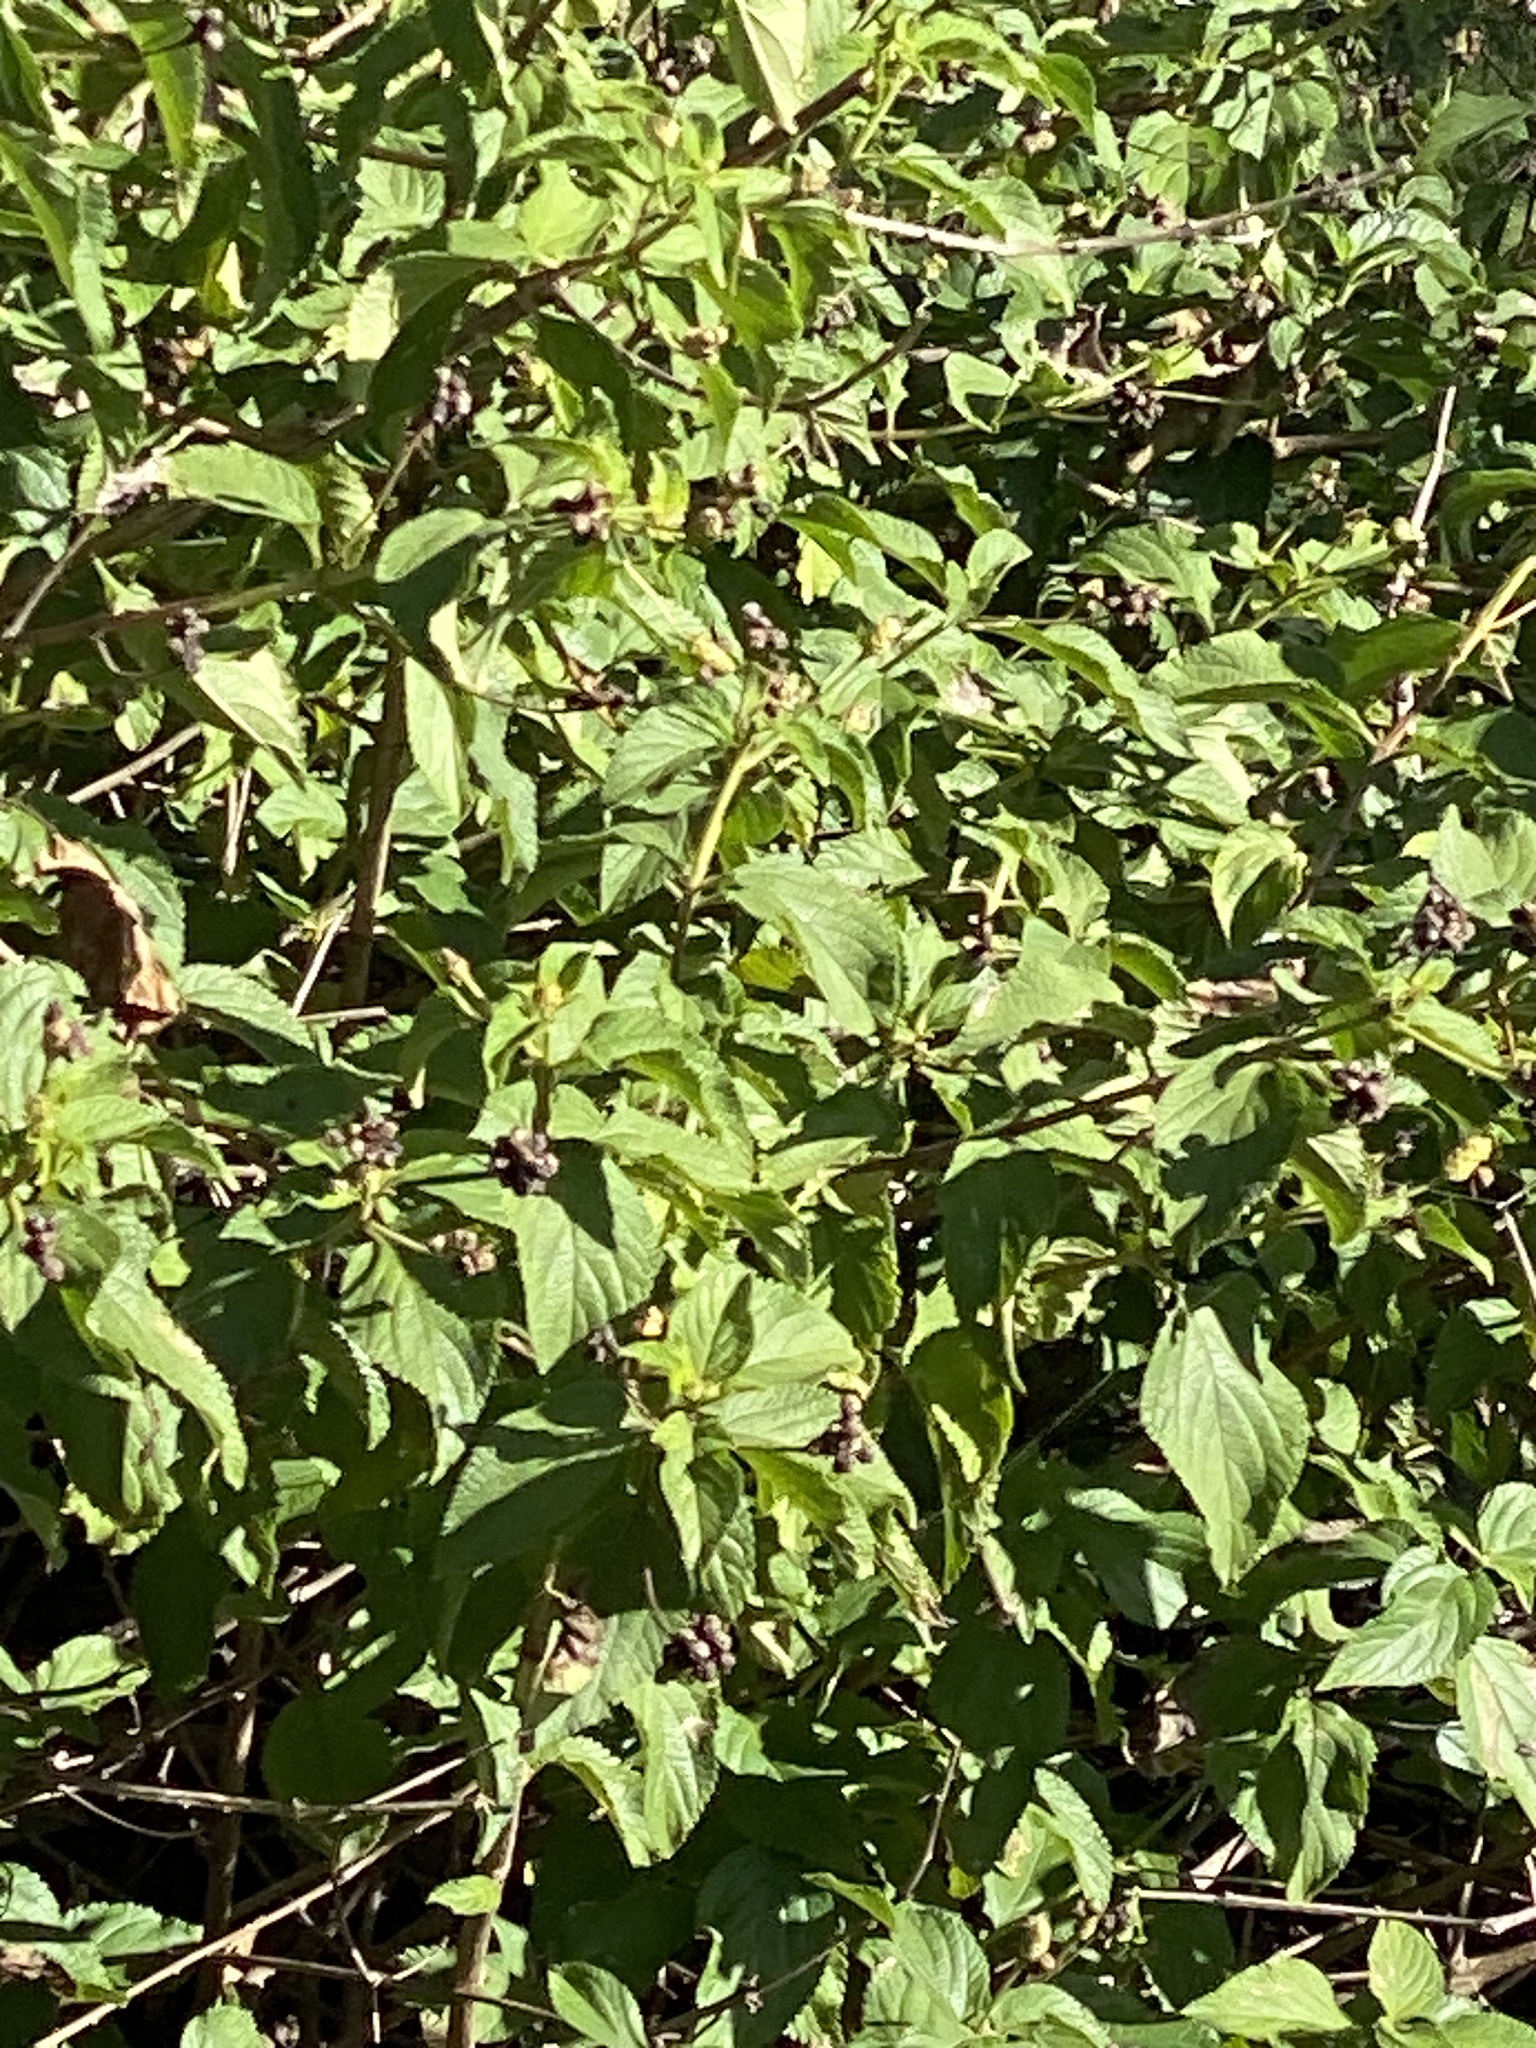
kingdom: Plantae
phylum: Tracheophyta
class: Magnoliopsida
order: Lamiales
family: Verbenaceae
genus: Lantana
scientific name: Lantana camara
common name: Lantana
